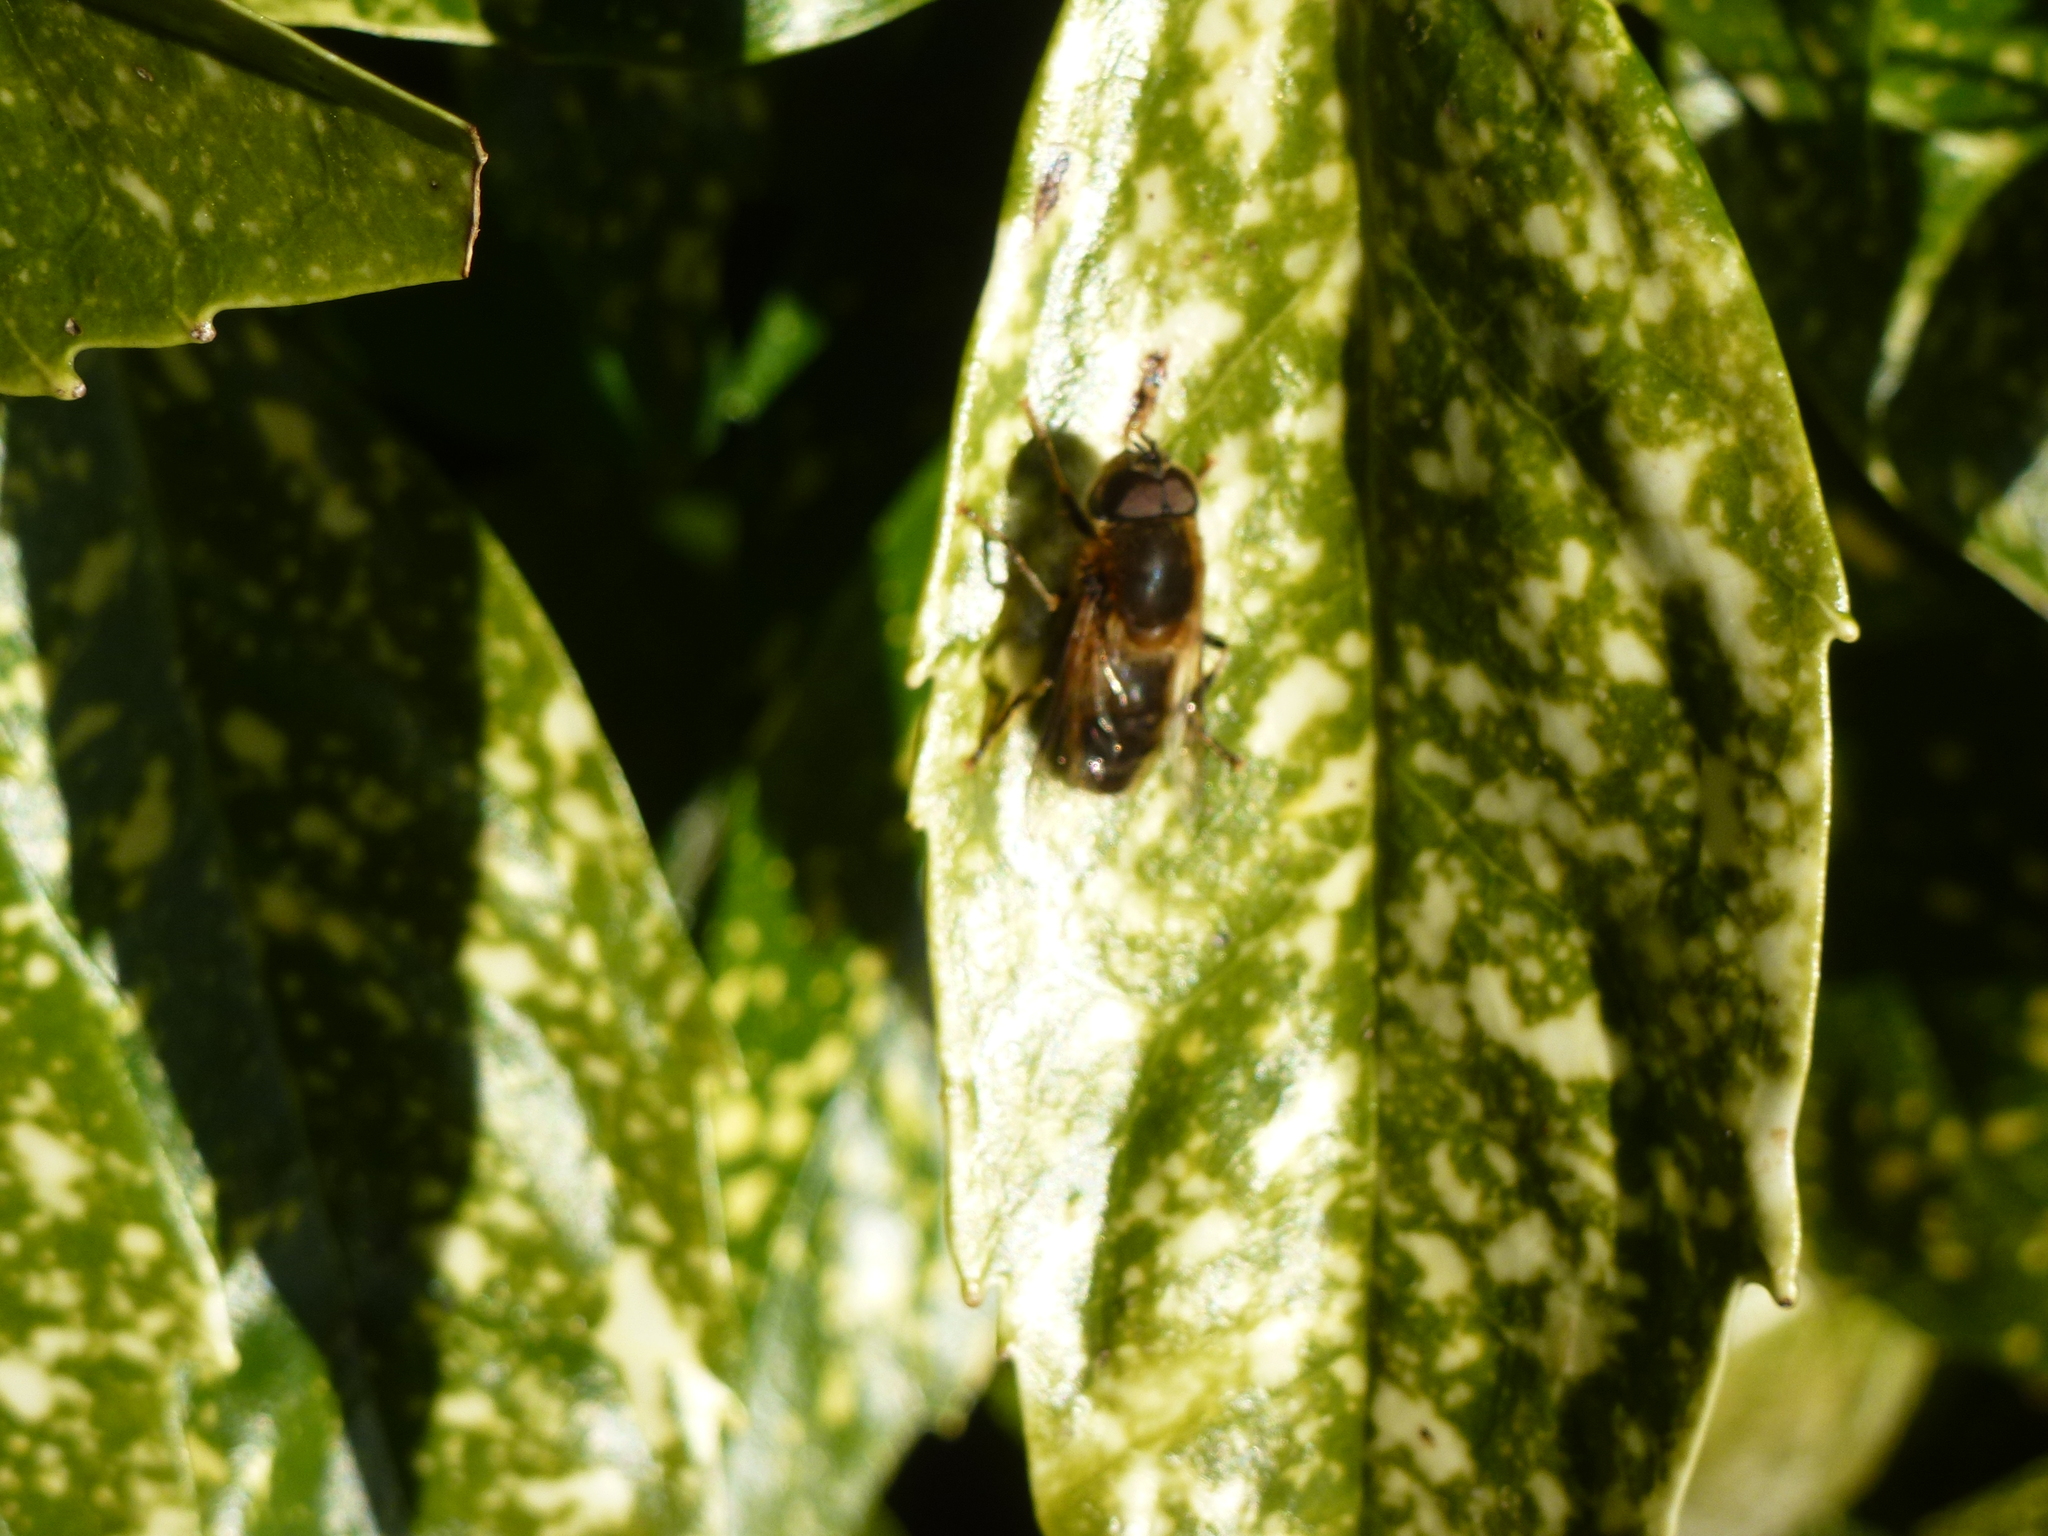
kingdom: Animalia
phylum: Arthropoda
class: Insecta
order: Diptera
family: Syrphidae
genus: Eristalis
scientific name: Eristalis pertinax
